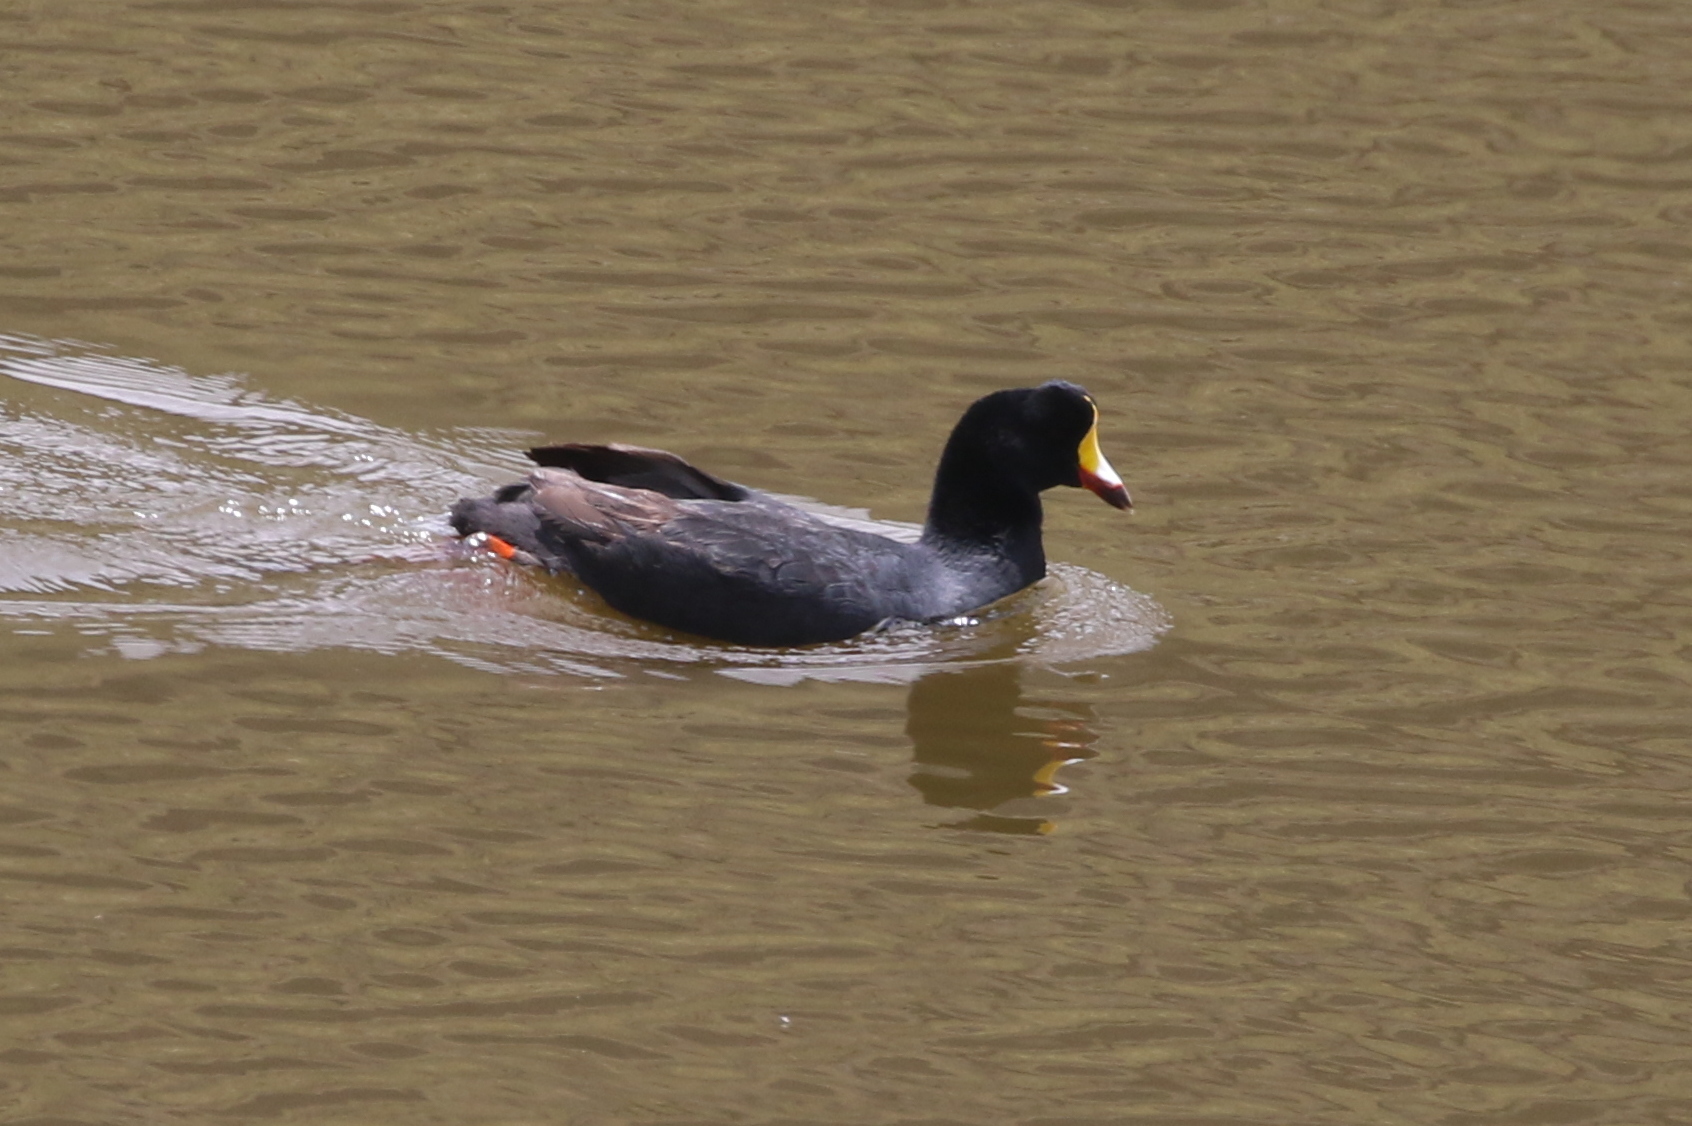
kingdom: Animalia
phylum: Chordata
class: Aves
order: Gruiformes
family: Rallidae
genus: Fulica
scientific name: Fulica gigantea
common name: Giant coot
